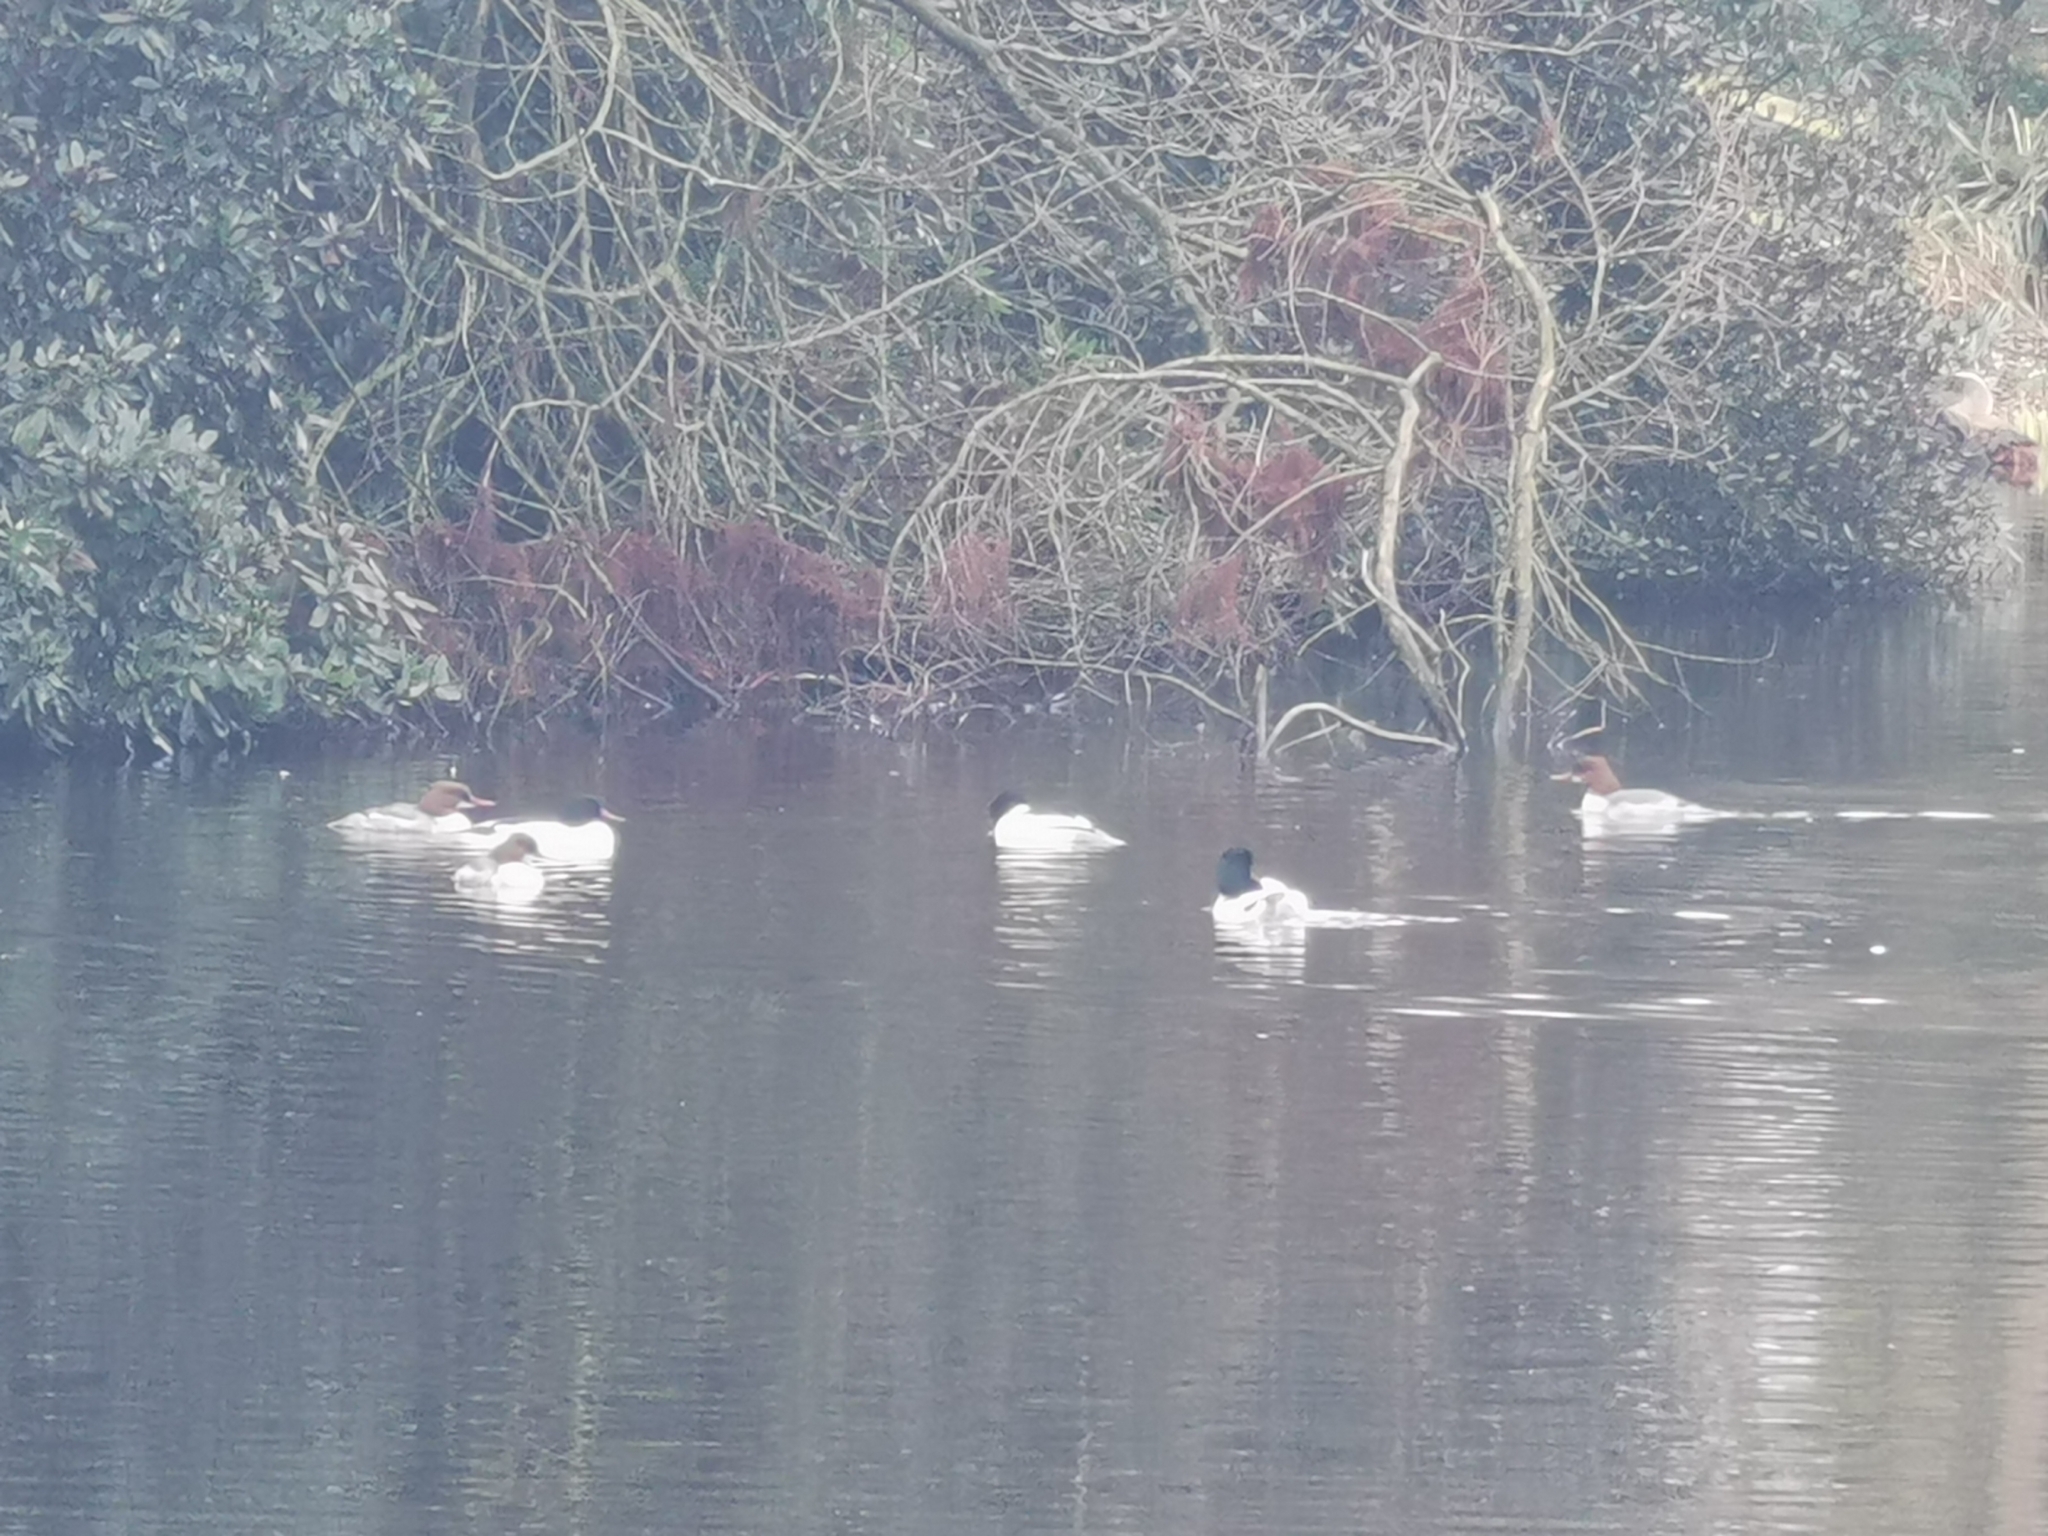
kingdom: Animalia
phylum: Chordata
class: Aves
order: Anseriformes
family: Anatidae
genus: Mergus
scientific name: Mergus merganser
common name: Common merganser
